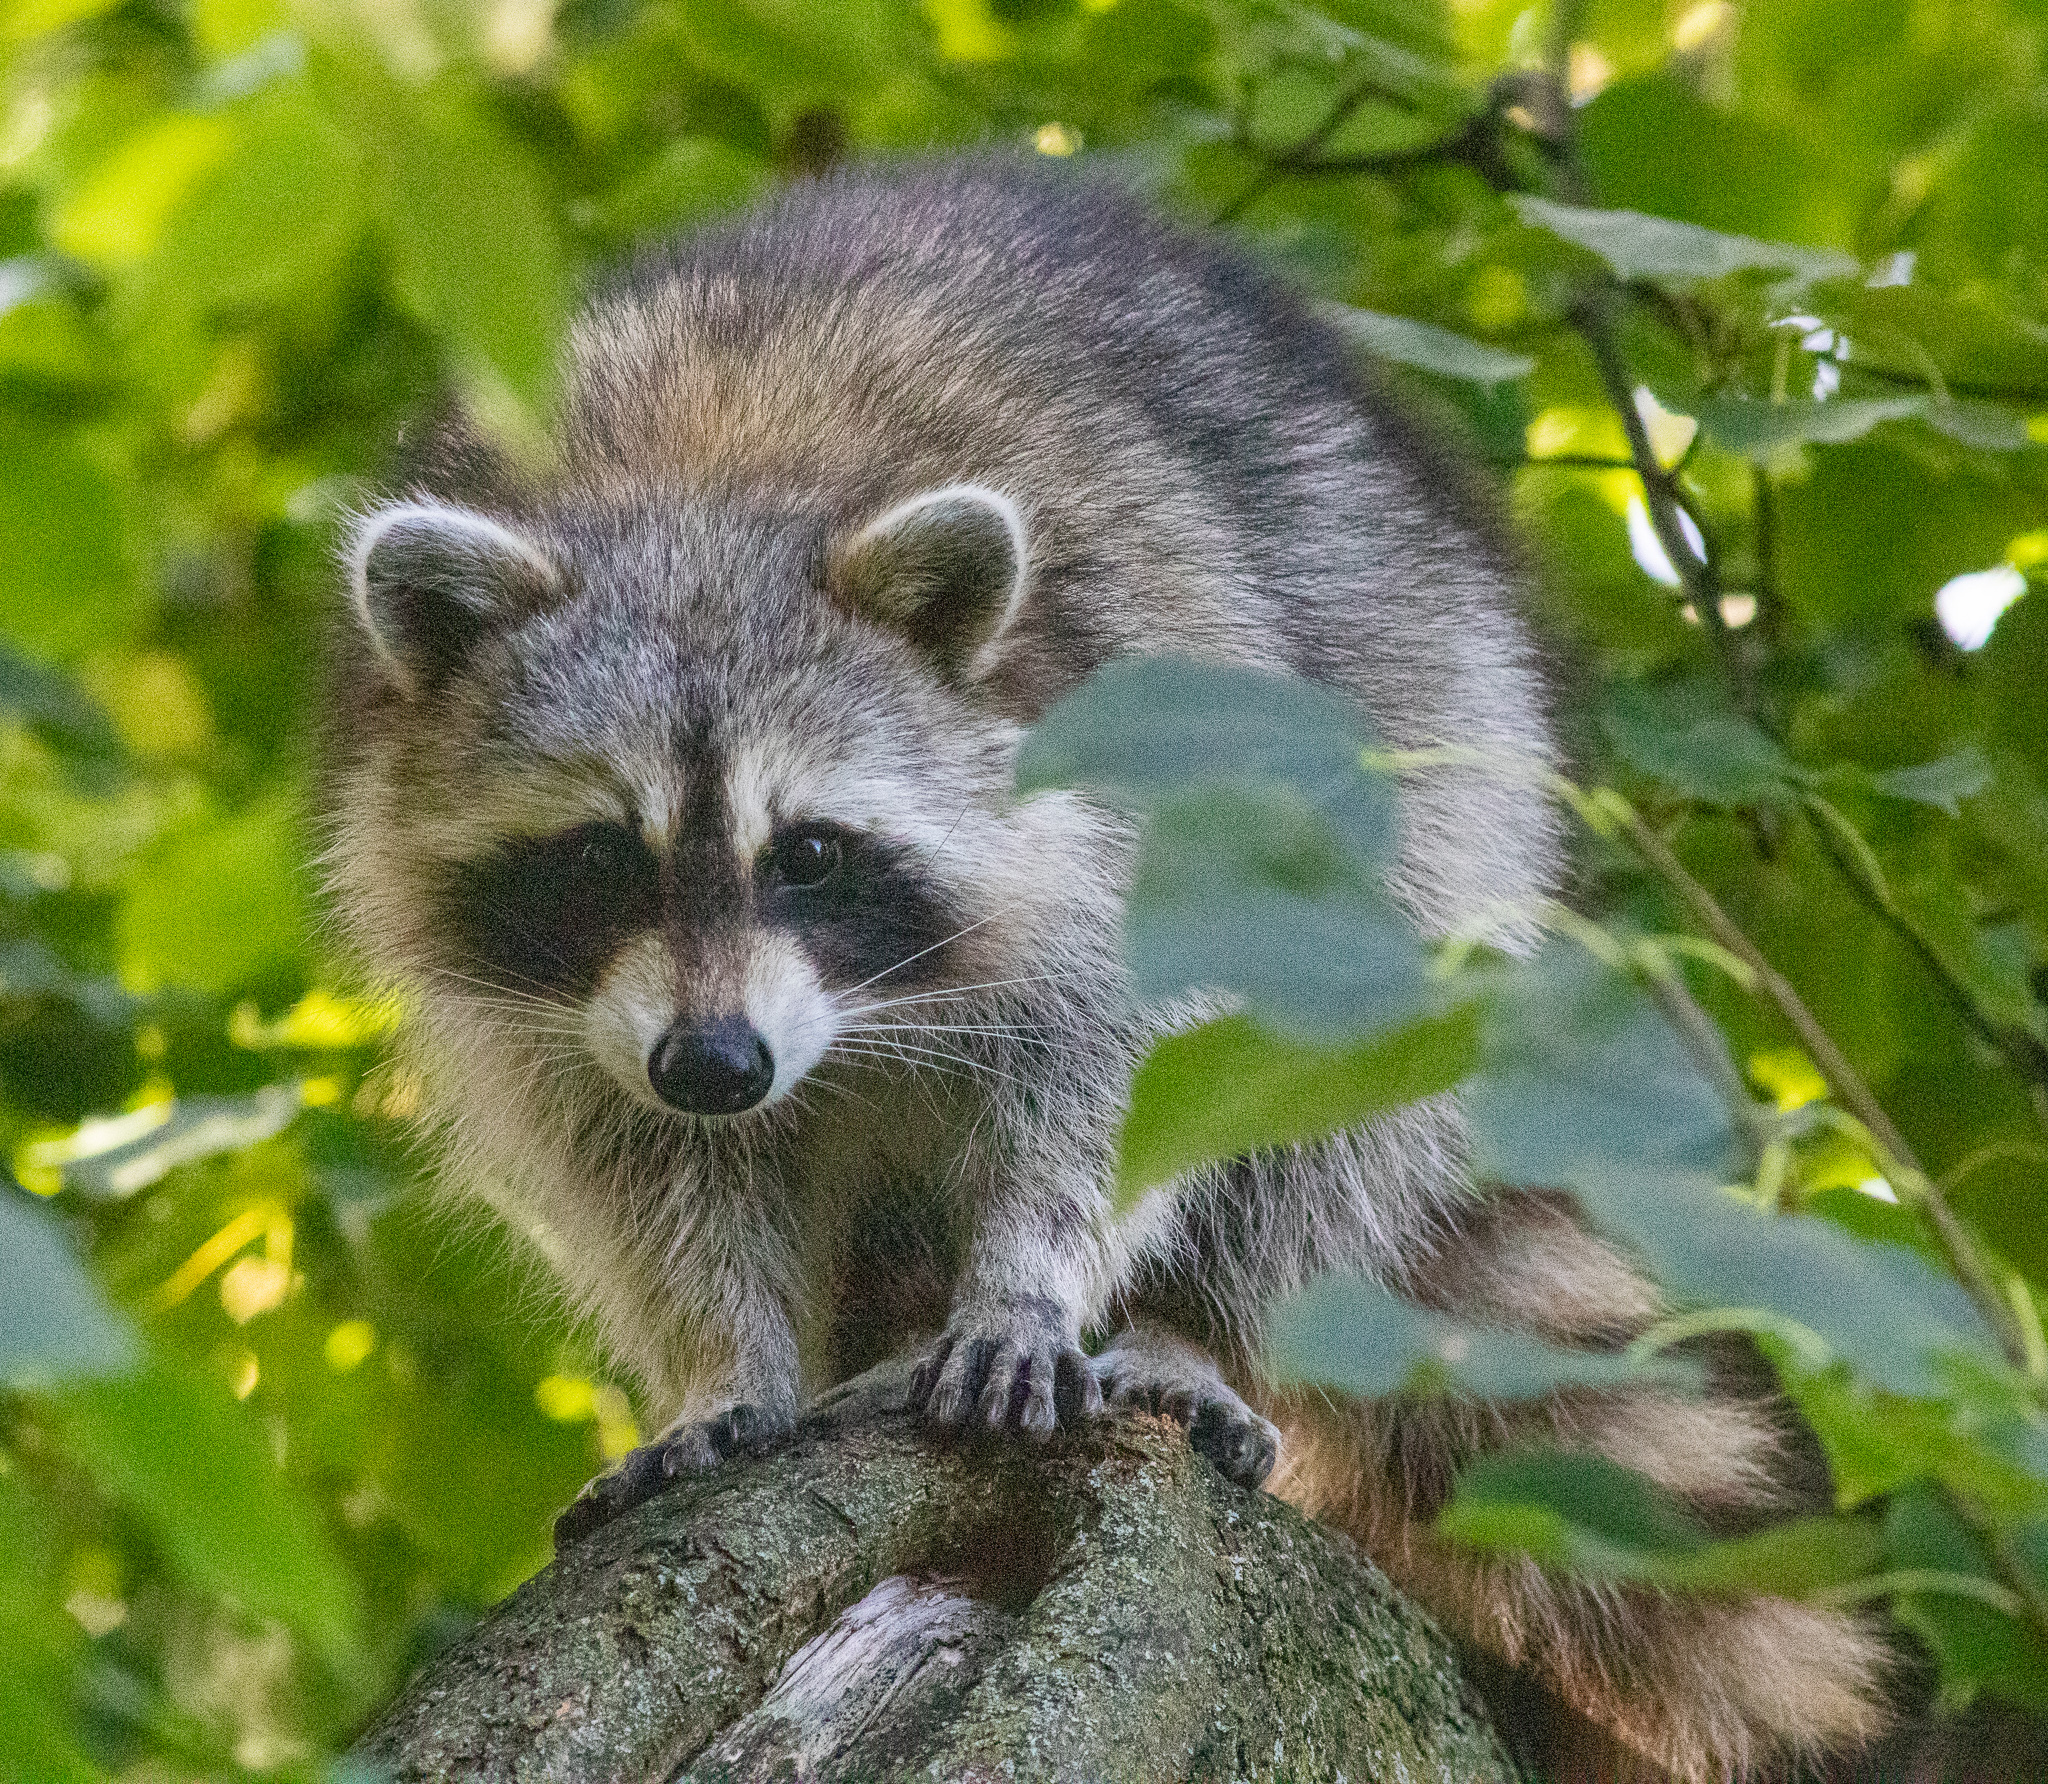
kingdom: Animalia
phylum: Chordata
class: Mammalia
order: Carnivora
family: Procyonidae
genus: Procyon
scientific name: Procyon lotor
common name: Raccoon
